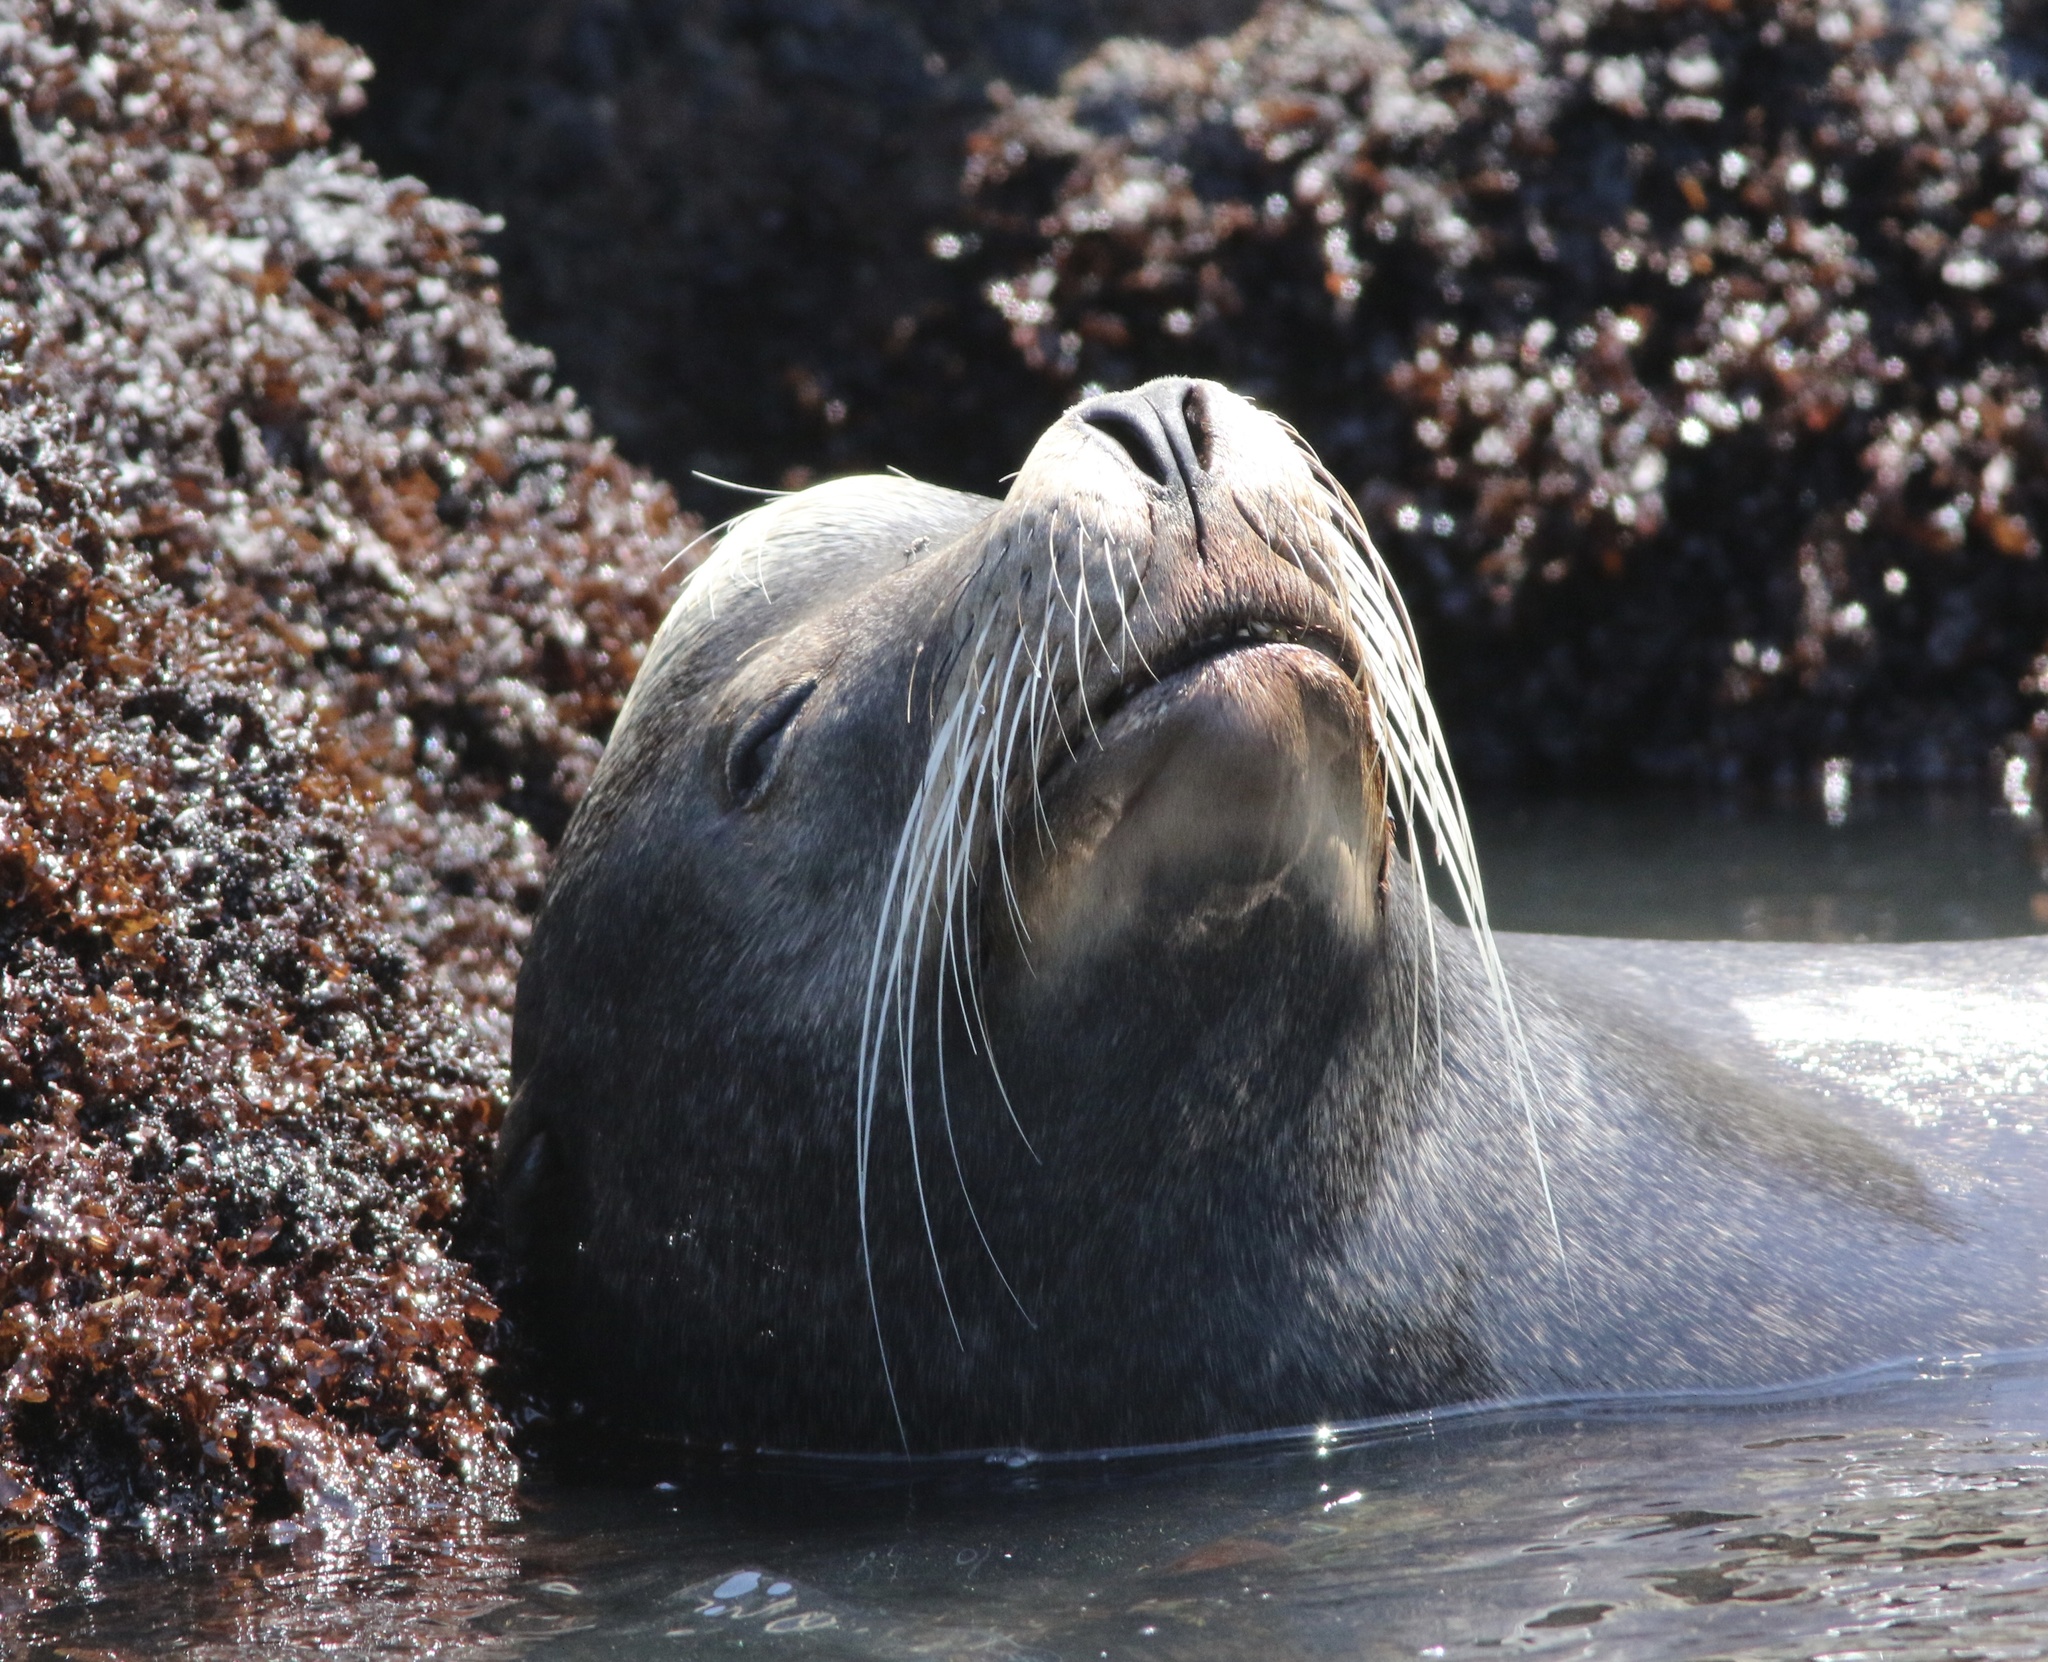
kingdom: Animalia
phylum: Chordata
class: Mammalia
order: Carnivora
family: Otariidae
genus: Zalophus
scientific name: Zalophus californianus
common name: California sea lion
